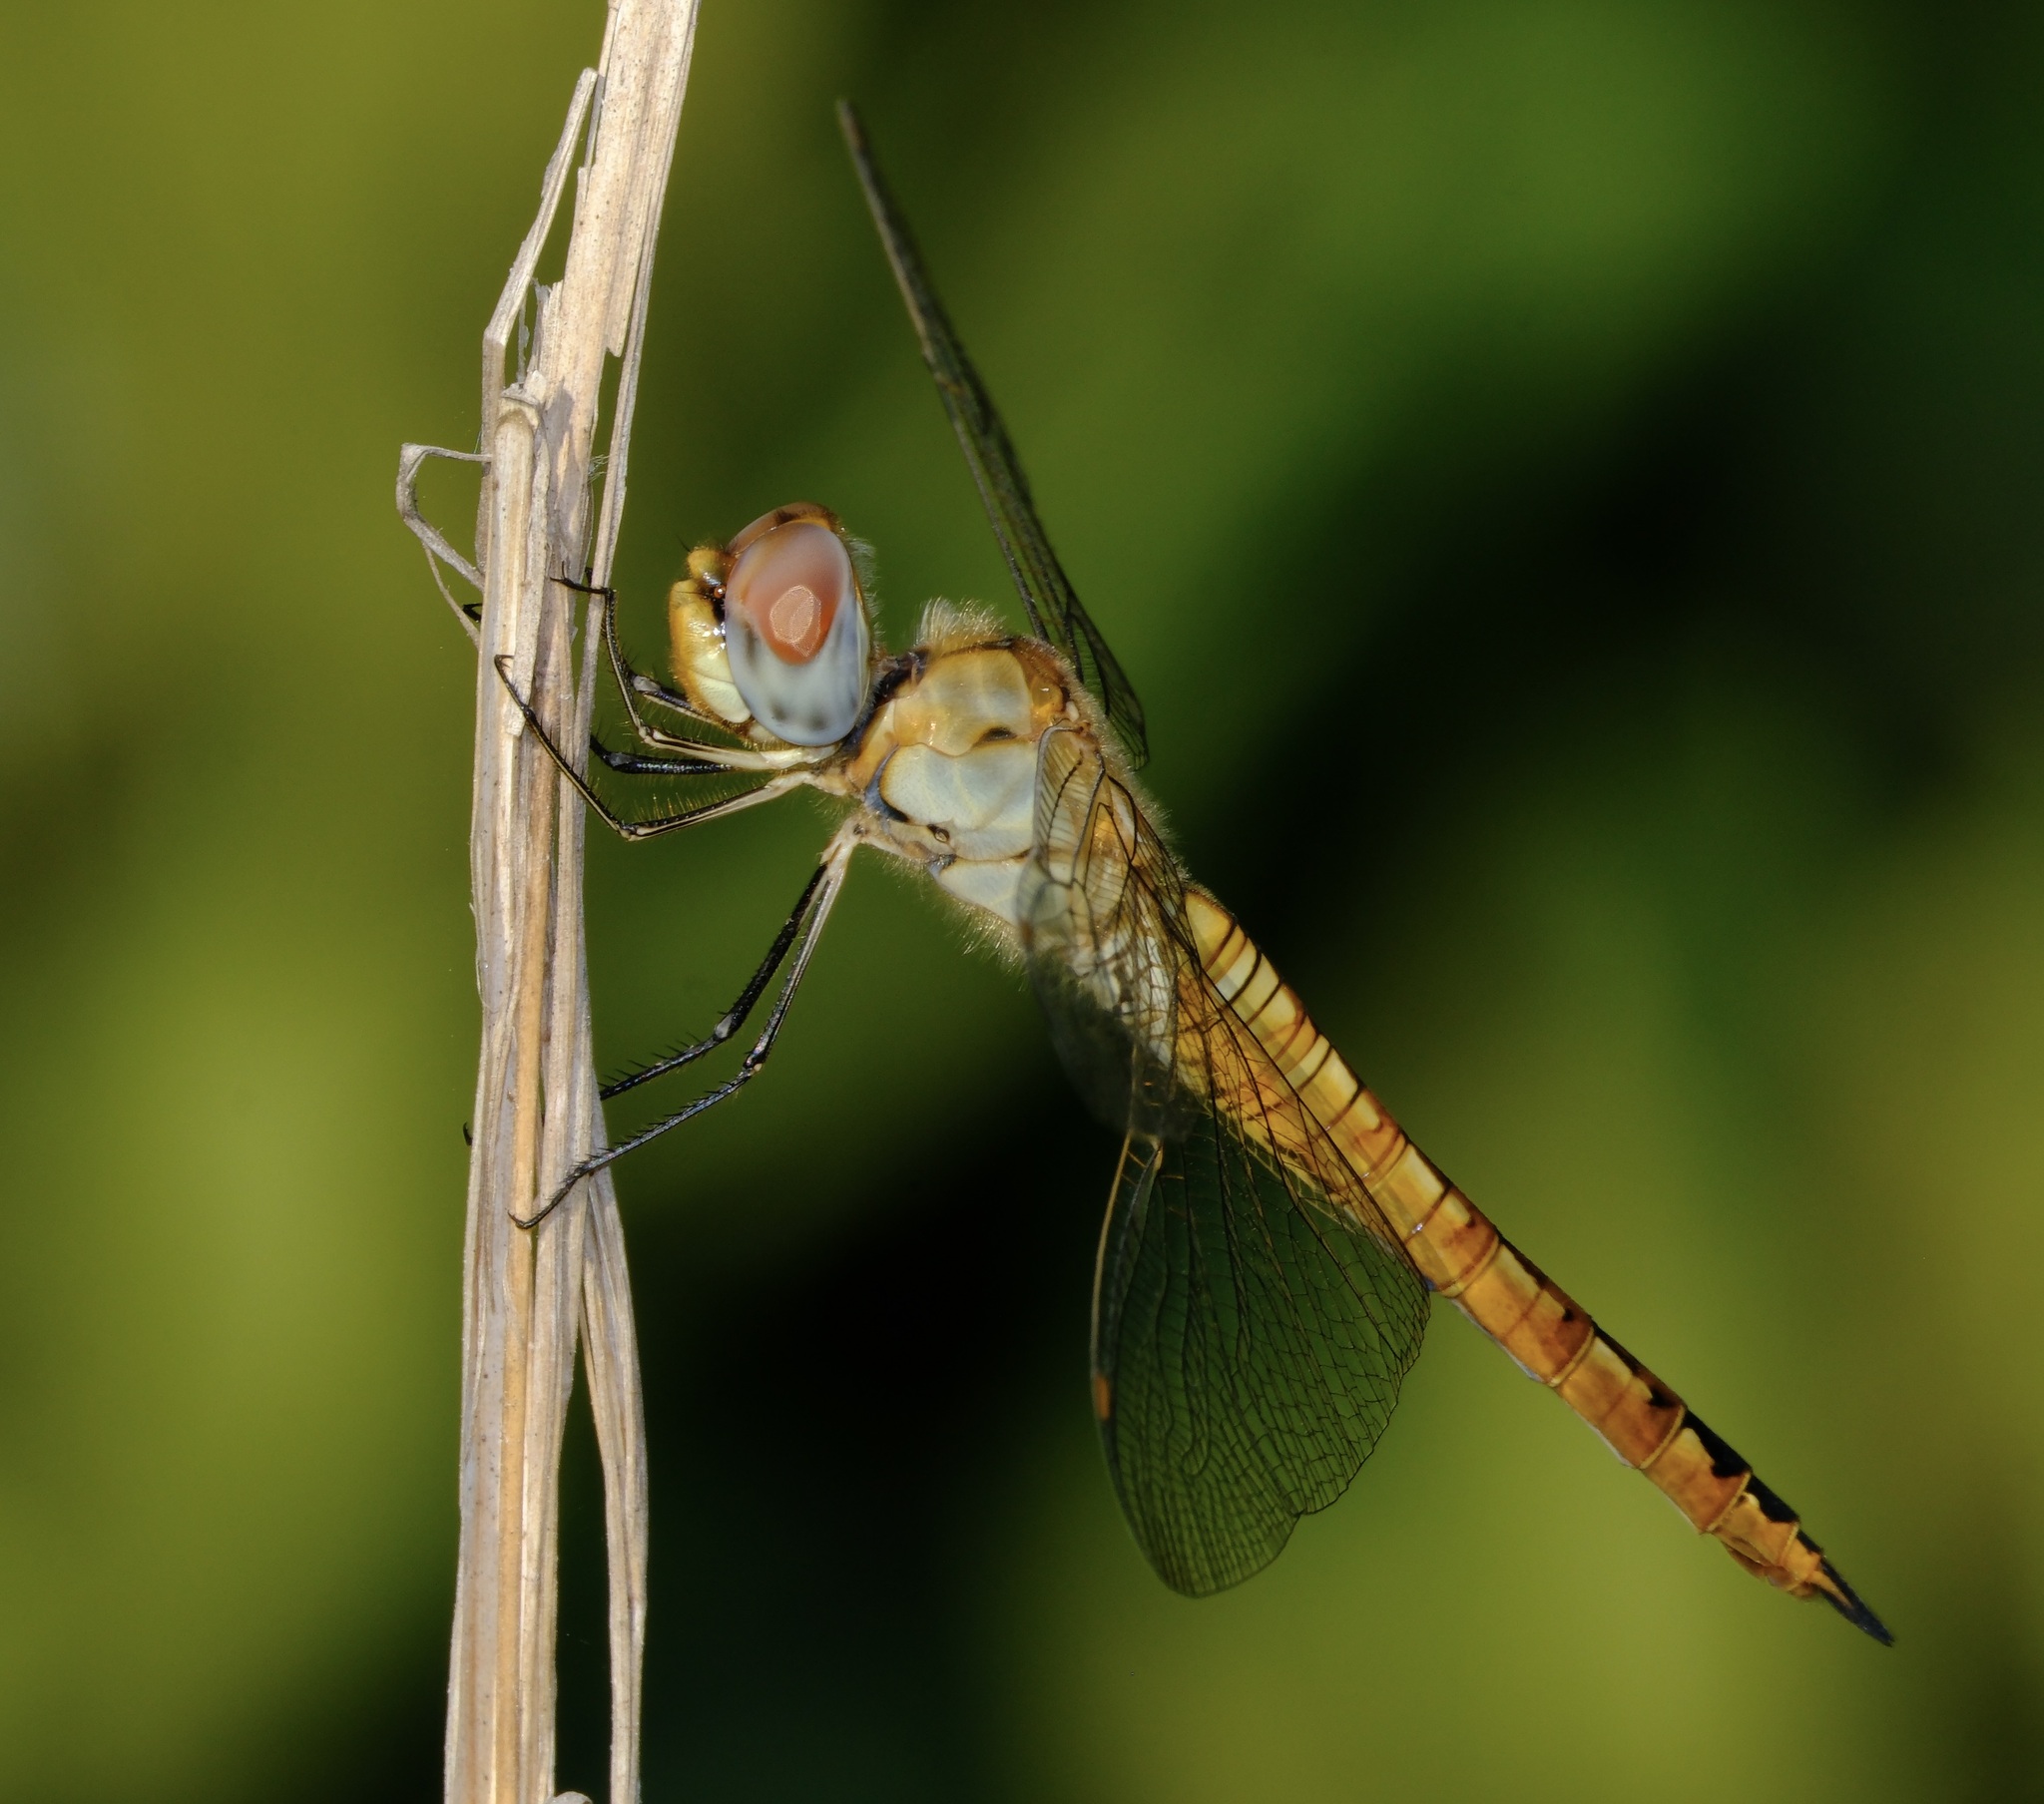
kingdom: Animalia
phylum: Arthropoda
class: Insecta
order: Odonata
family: Libellulidae
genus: Pantala
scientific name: Pantala flavescens
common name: Wandering glider
